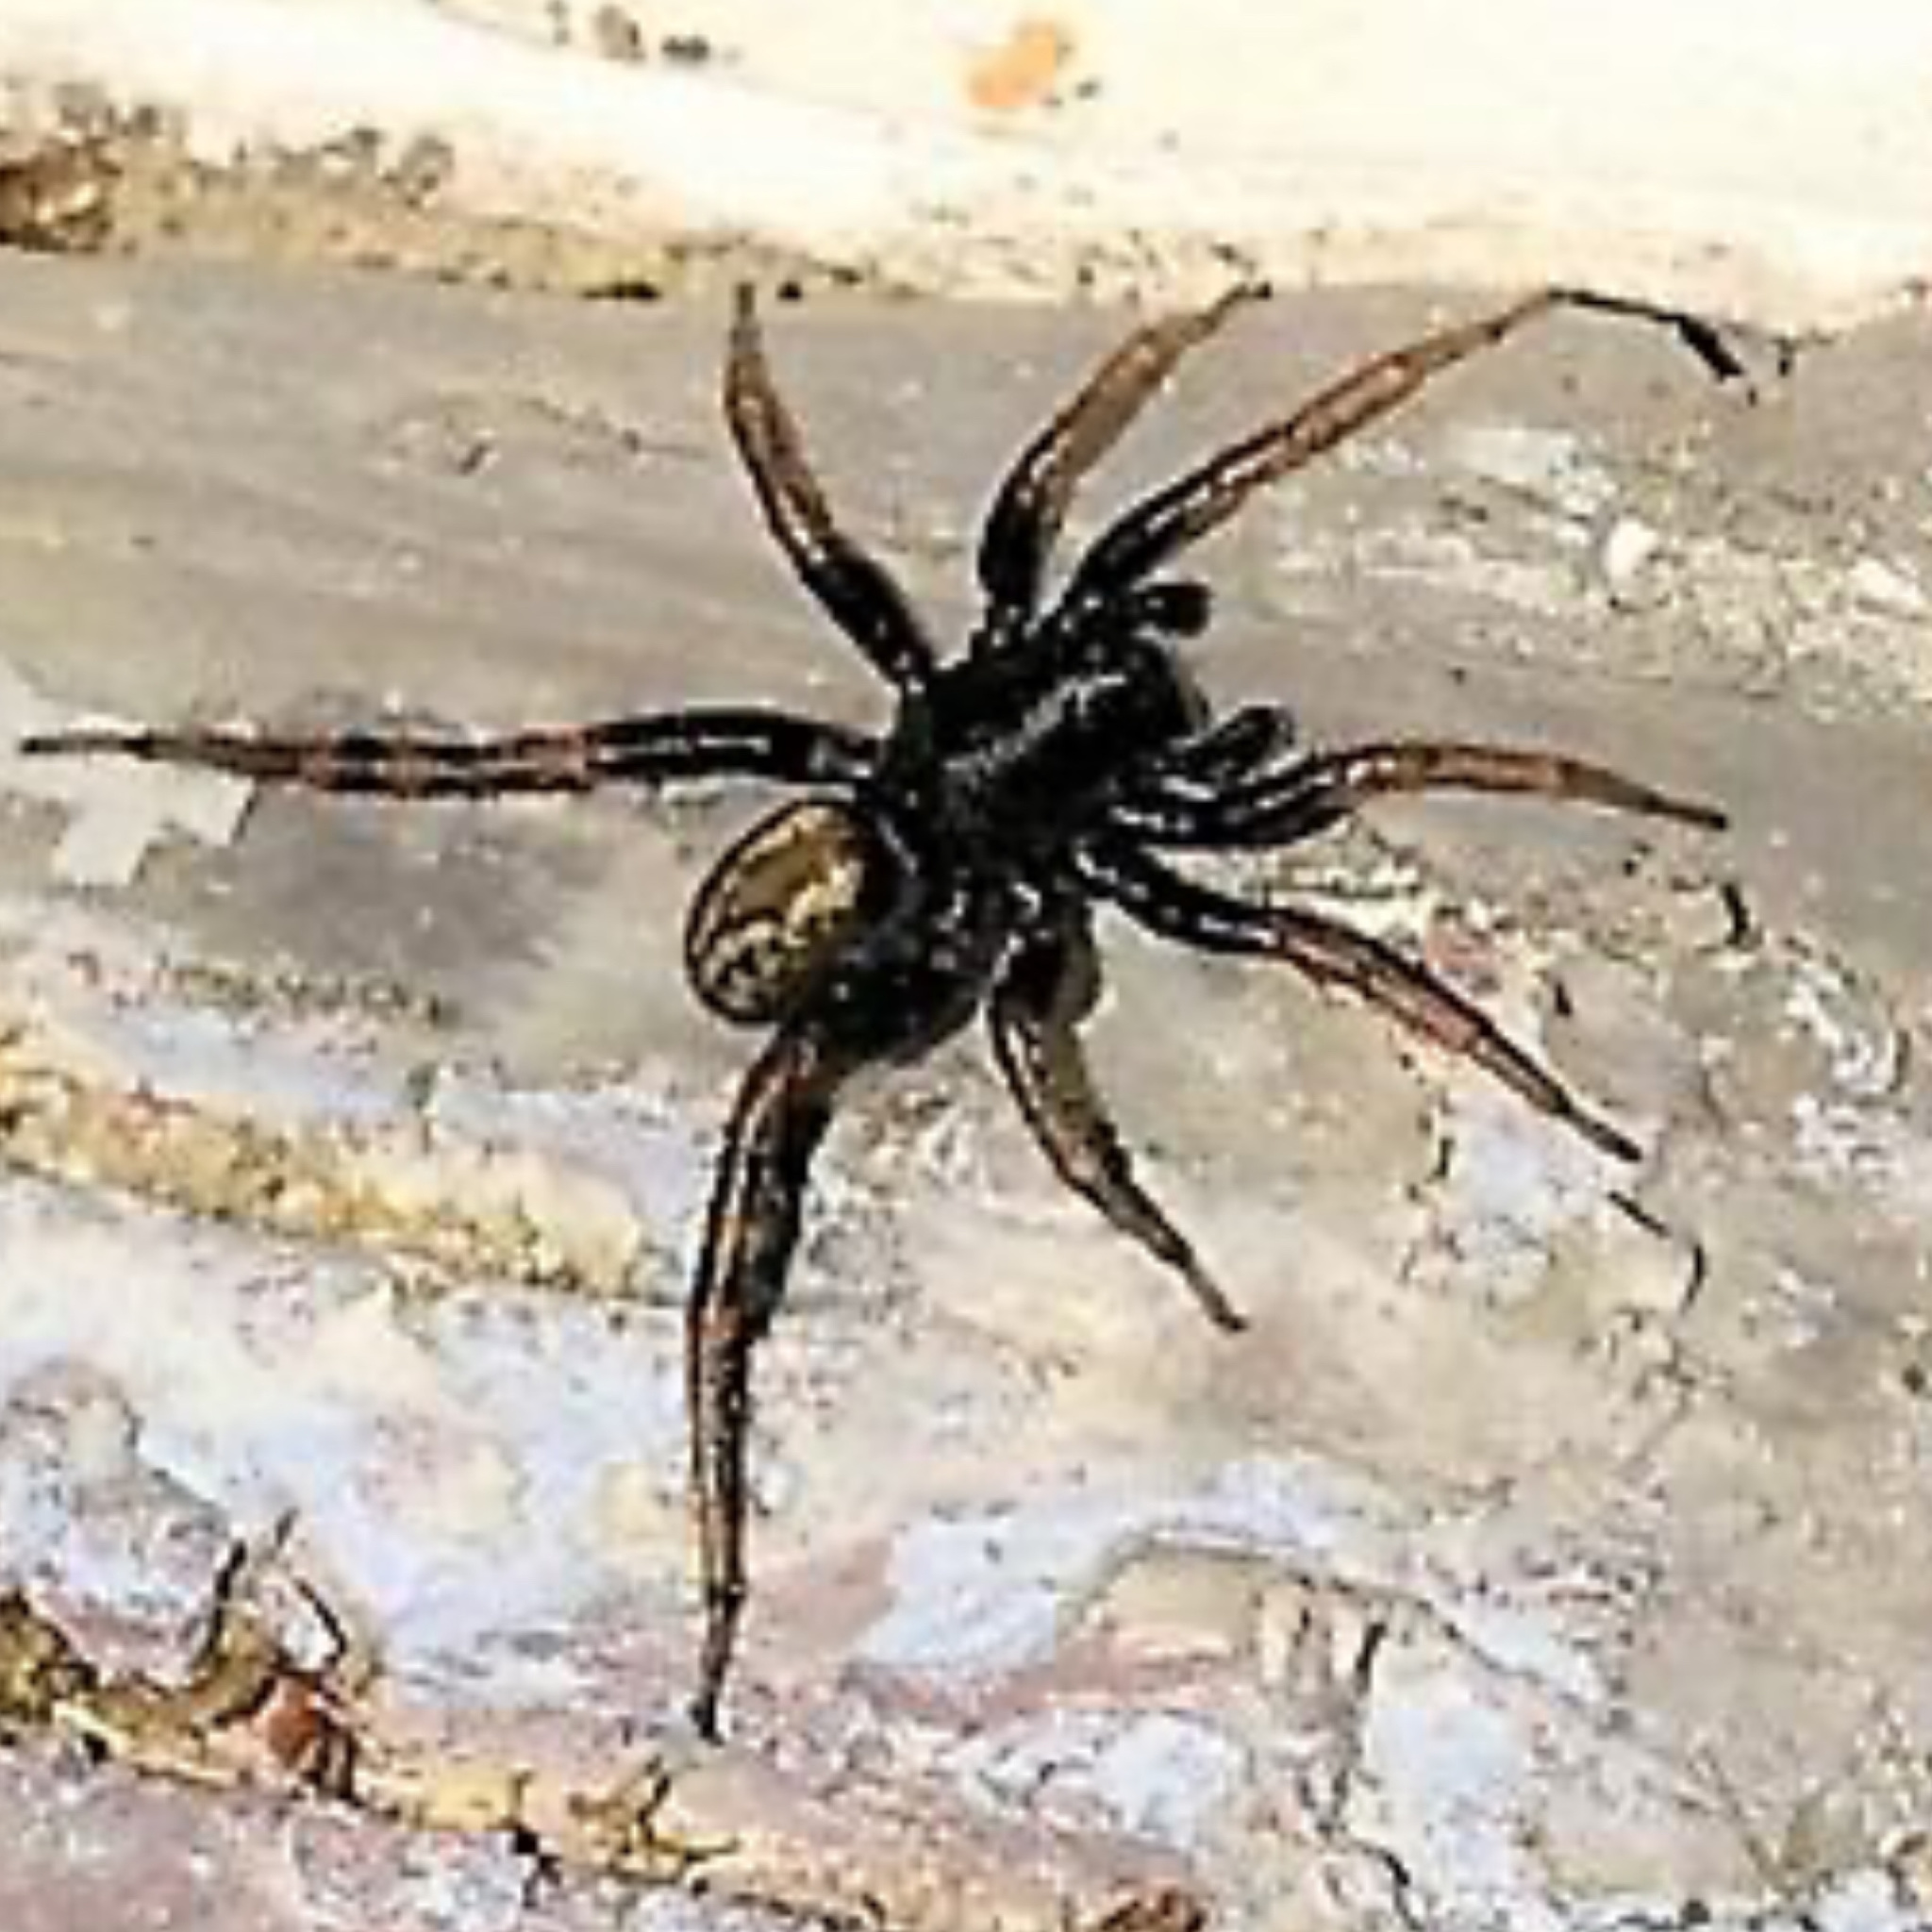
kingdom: Animalia
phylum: Arthropoda
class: Arachnida
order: Araneae
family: Lycosidae
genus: Allocosa
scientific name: Allocosa funerea
